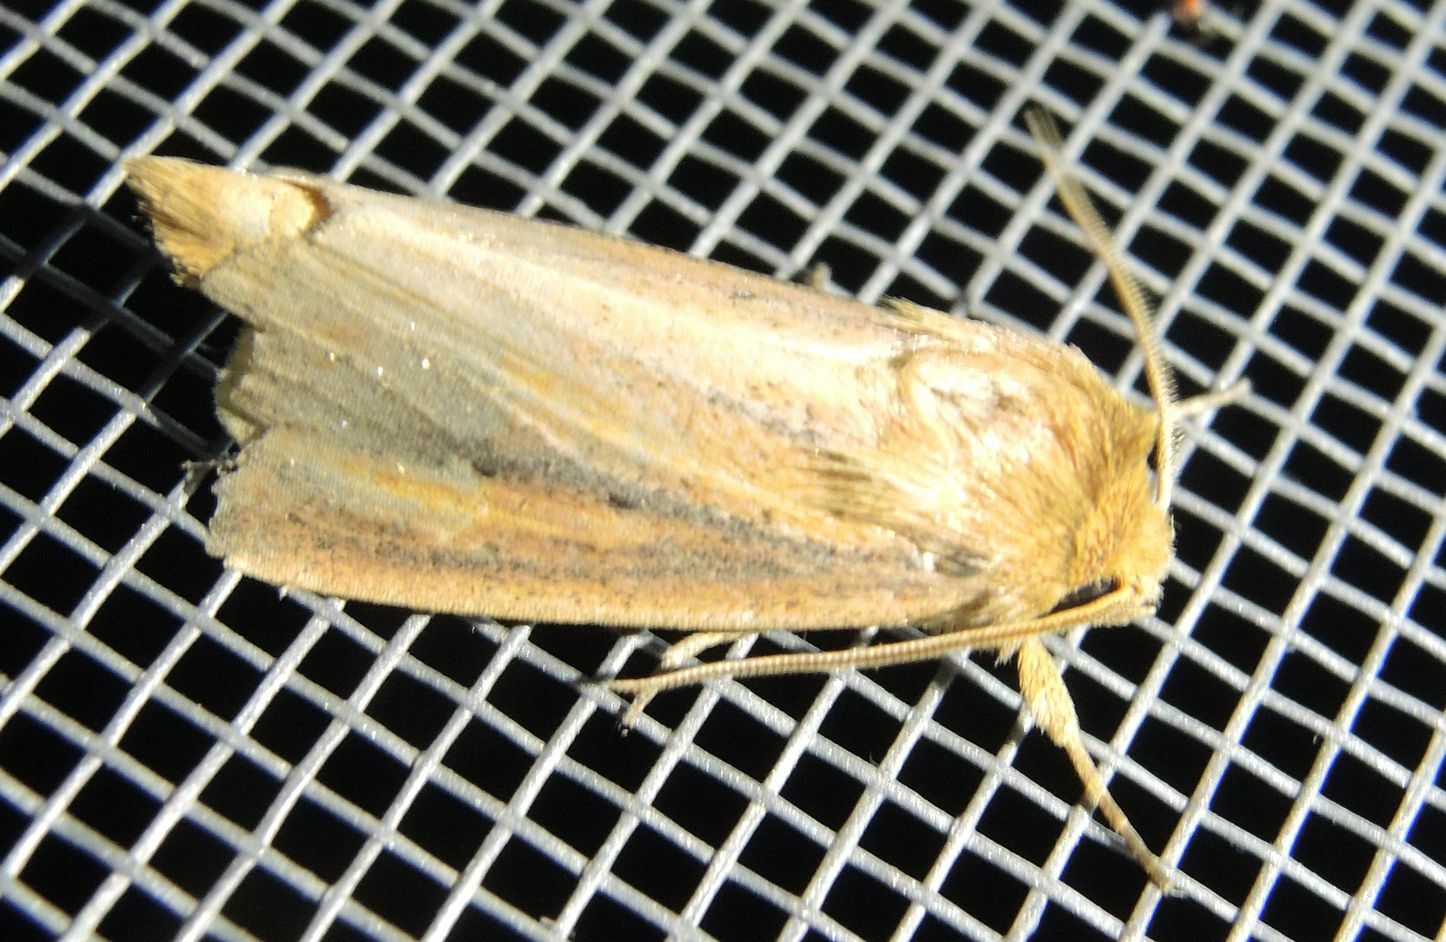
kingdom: Animalia
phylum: Arthropoda
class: Insecta
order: Lepidoptera
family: Noctuidae
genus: Globia
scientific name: Globia sparganii
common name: Webb's wainscot
